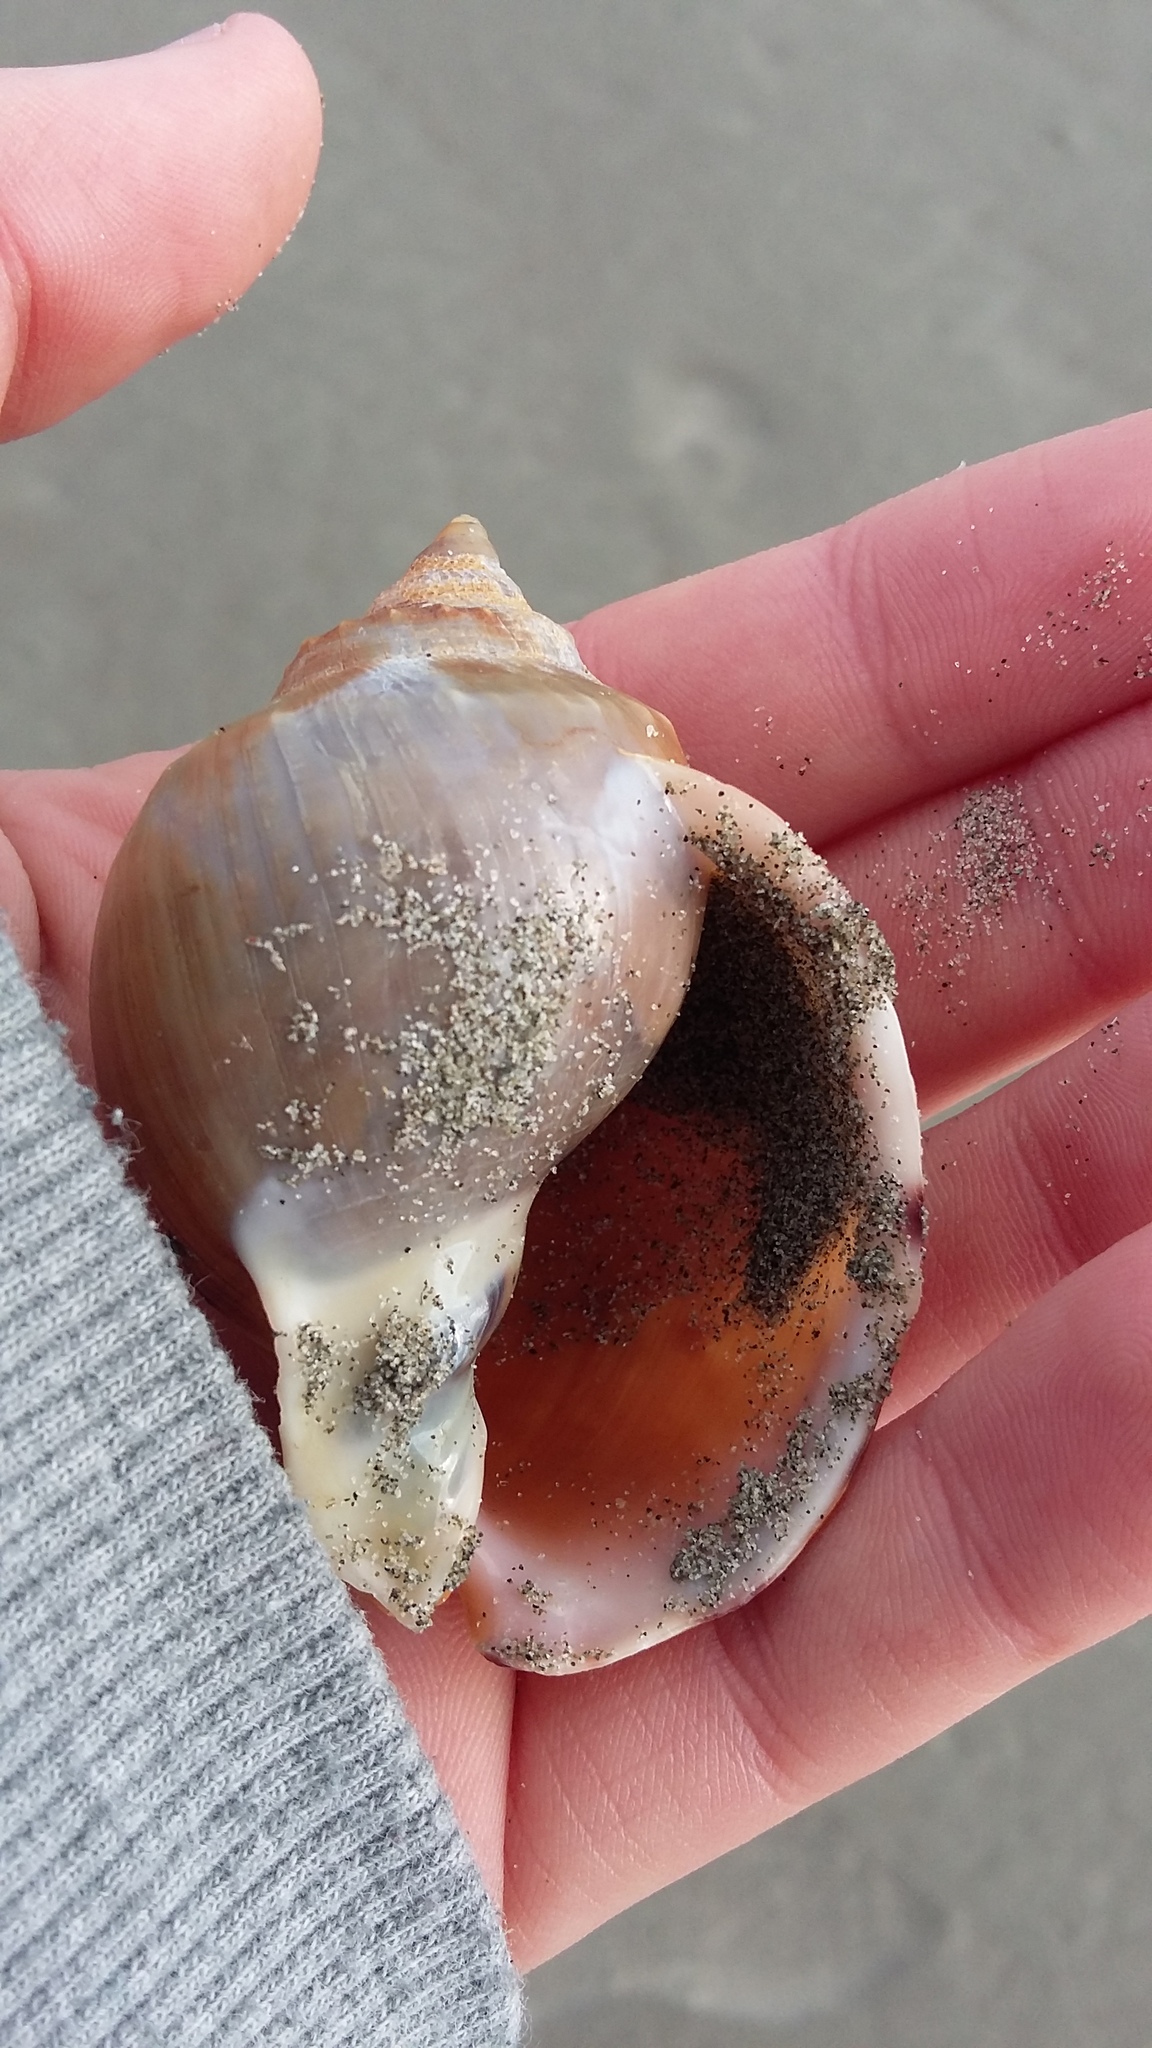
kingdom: Animalia
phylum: Mollusca
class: Gastropoda
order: Littorinimorpha
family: Cassidae
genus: Semicassis
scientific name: Semicassis pyrum
